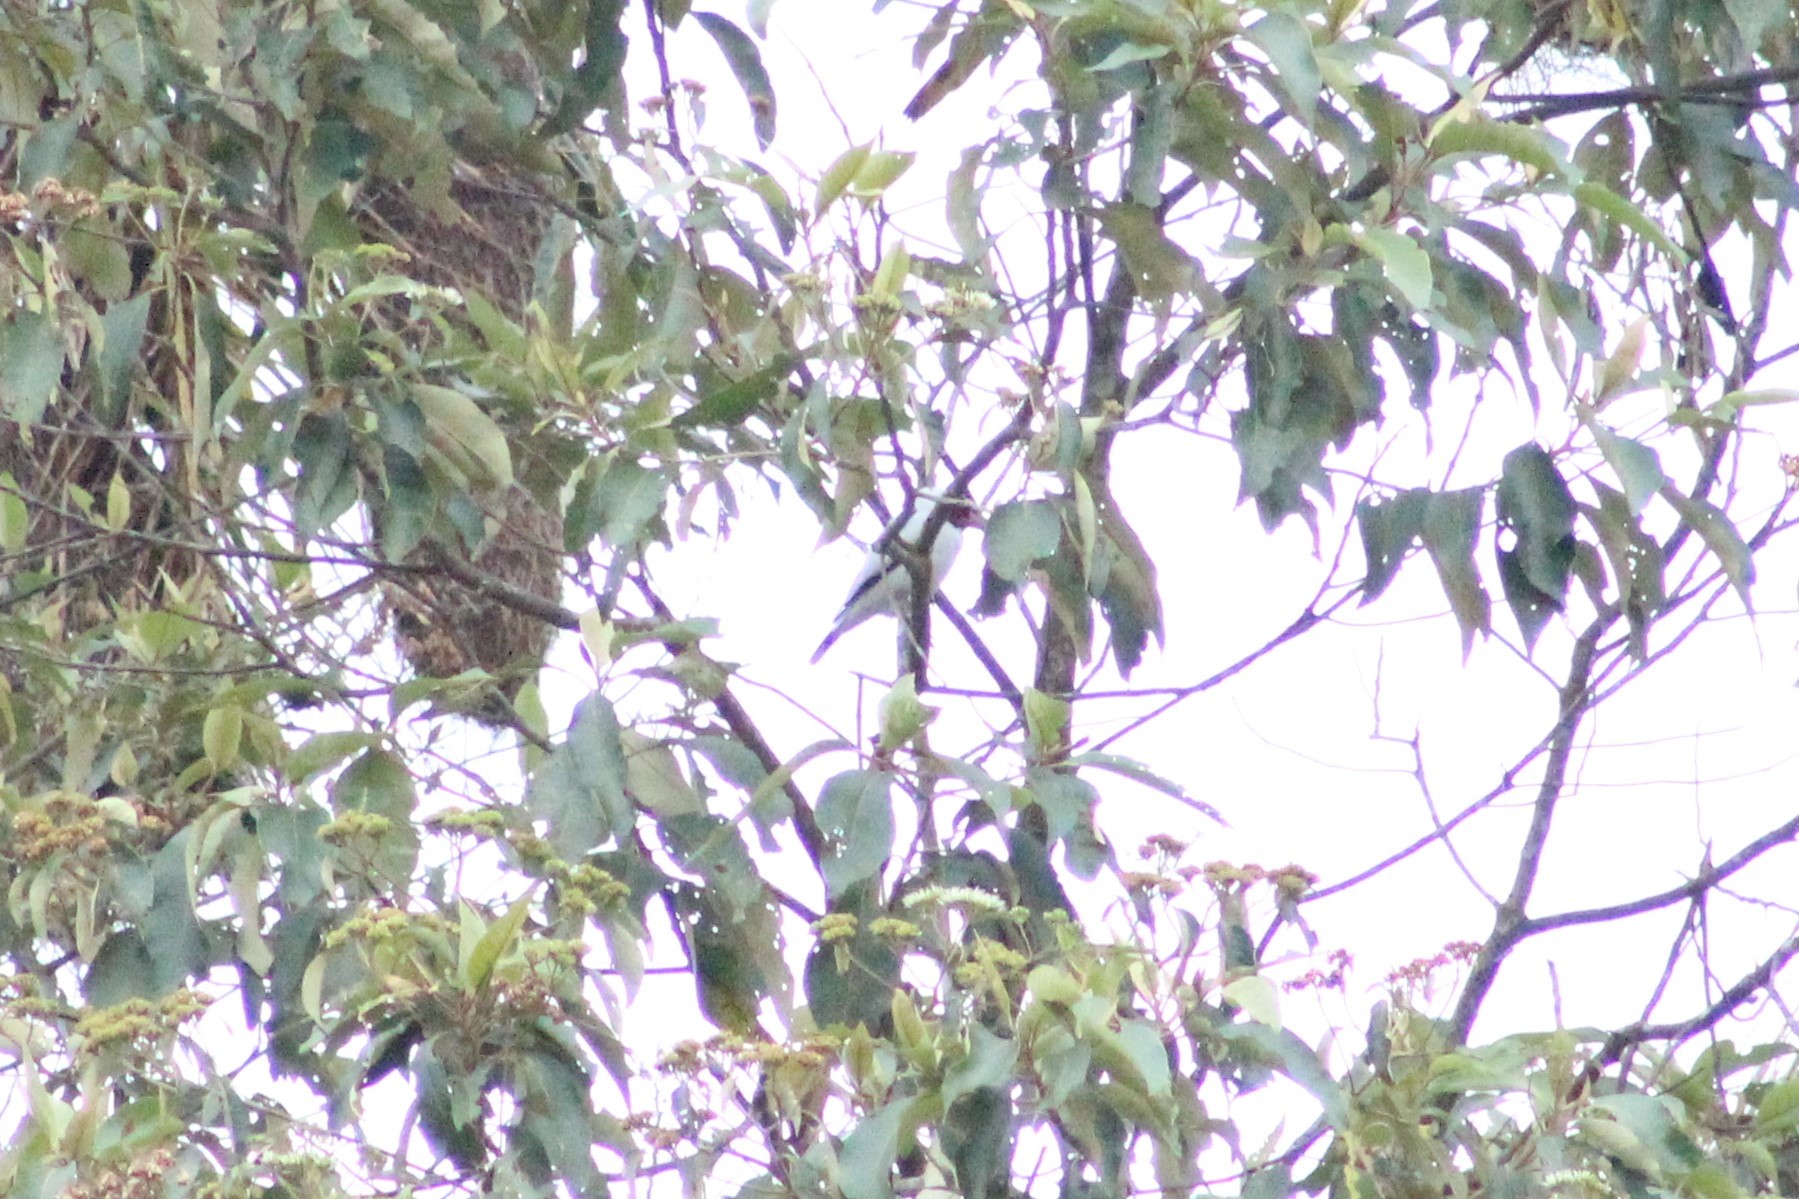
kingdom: Animalia
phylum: Chordata
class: Aves
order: Passeriformes
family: Cotingidae
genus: Tityra
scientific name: Tityra semifasciata
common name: Masked tityra
